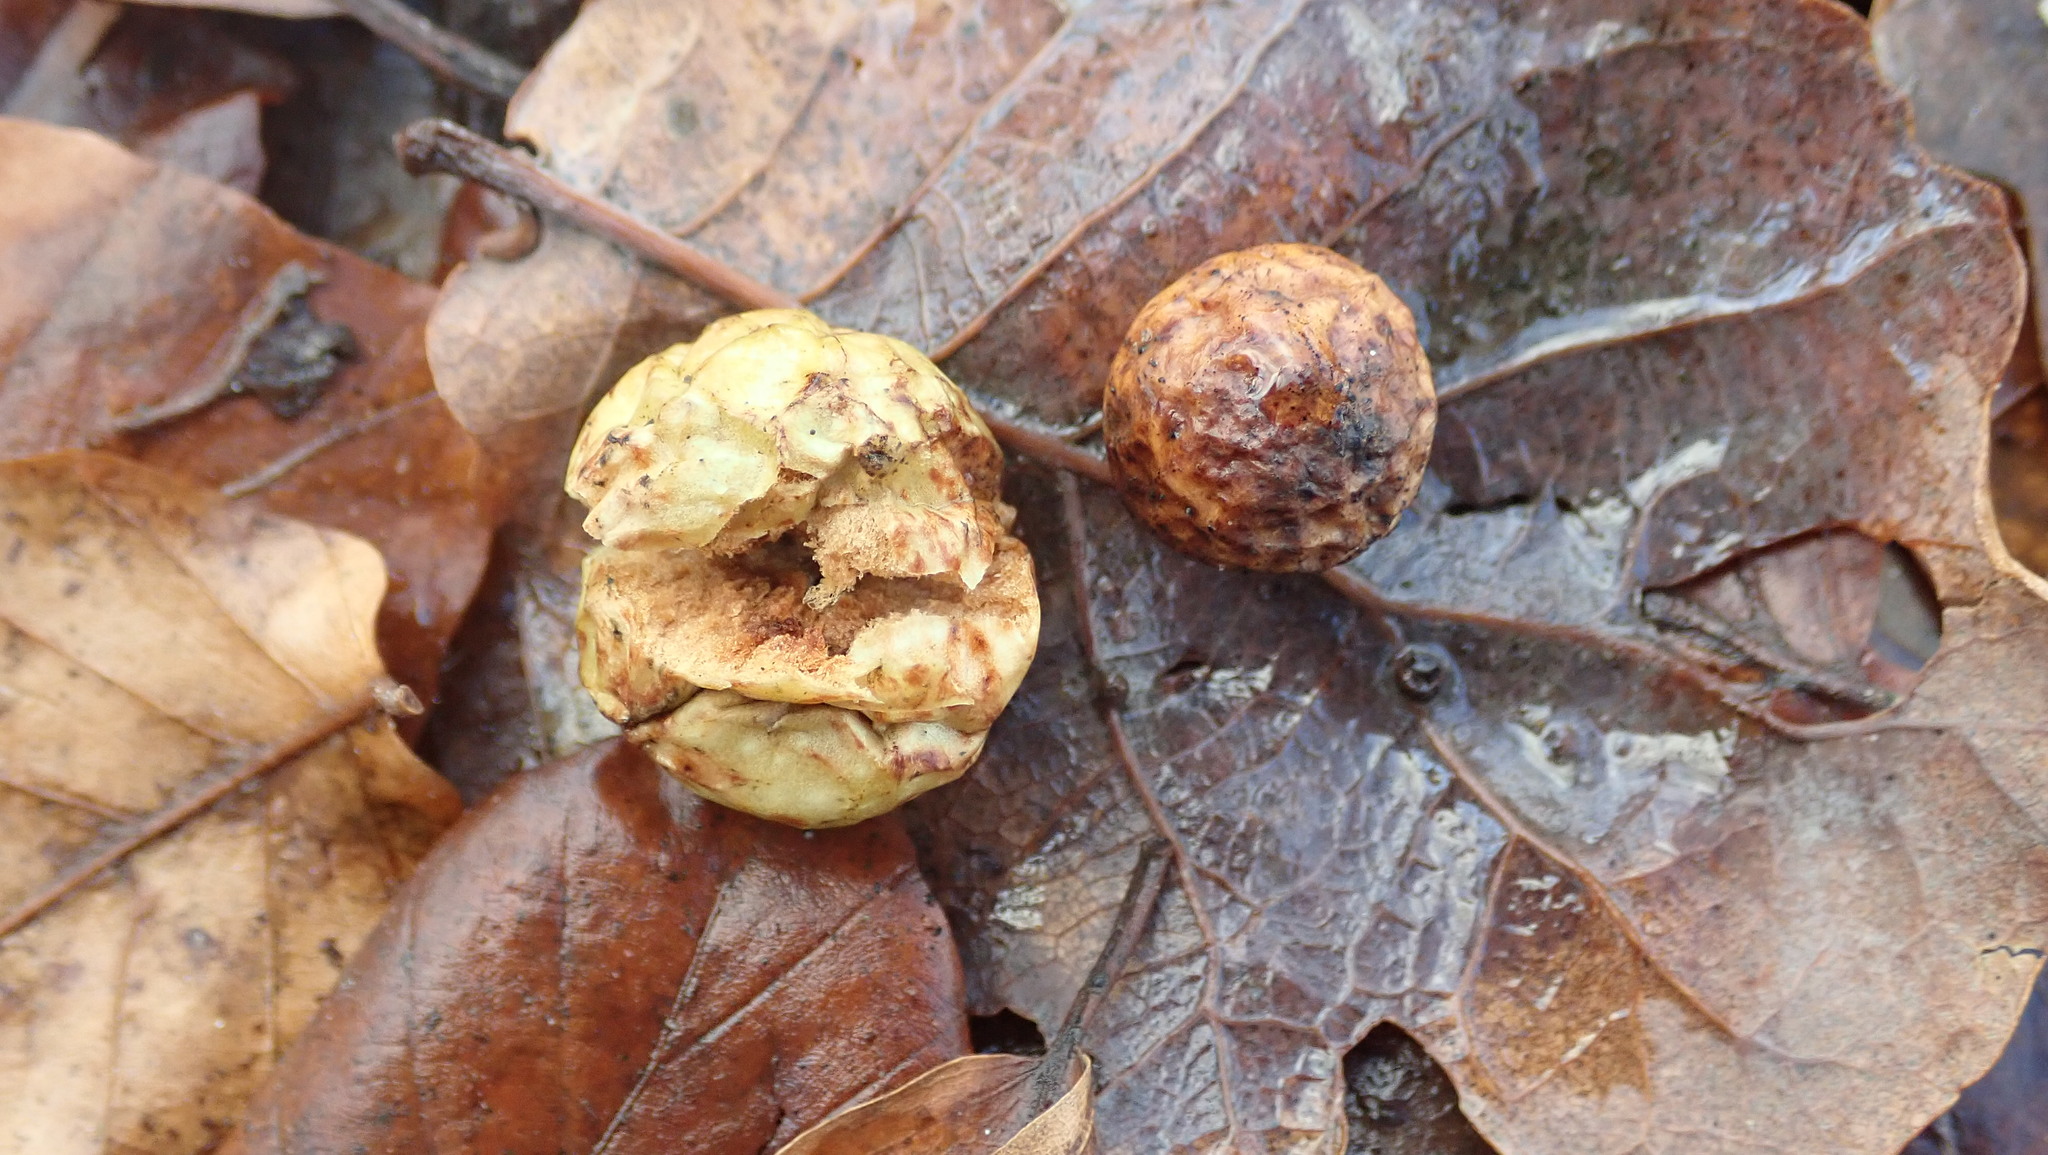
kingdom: Animalia
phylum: Arthropoda
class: Insecta
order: Hymenoptera
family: Cynipidae
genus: Cynips
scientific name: Cynips quercusfolii
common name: Cherry gall
